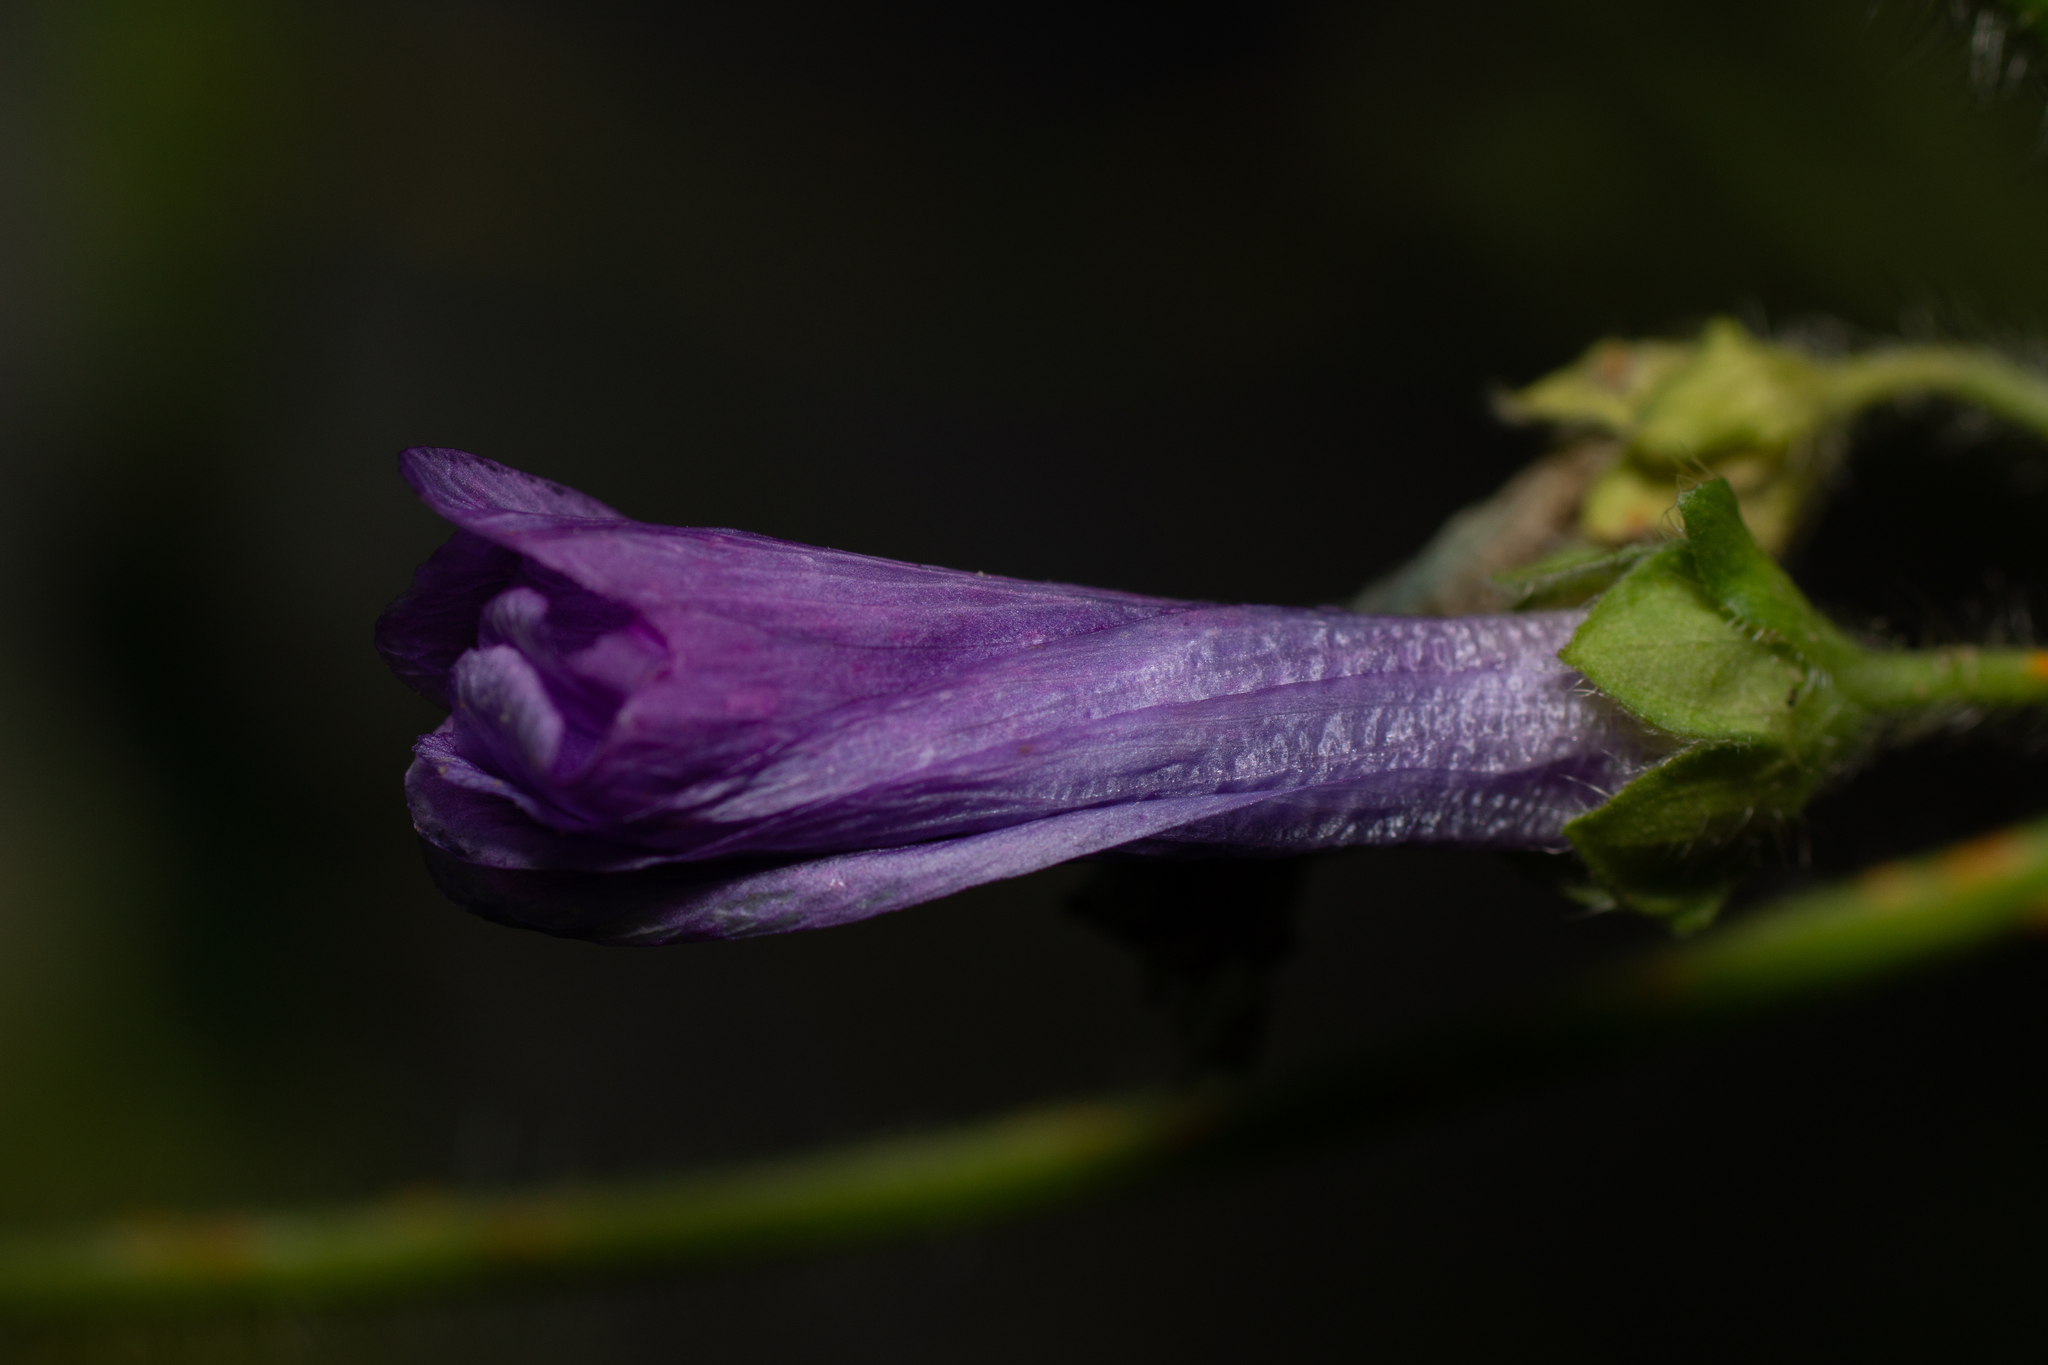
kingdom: Plantae
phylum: Tracheophyta
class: Magnoliopsida
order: Malvales
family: Malvaceae
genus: Malva
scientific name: Malva sylvestris
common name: Common mallow
